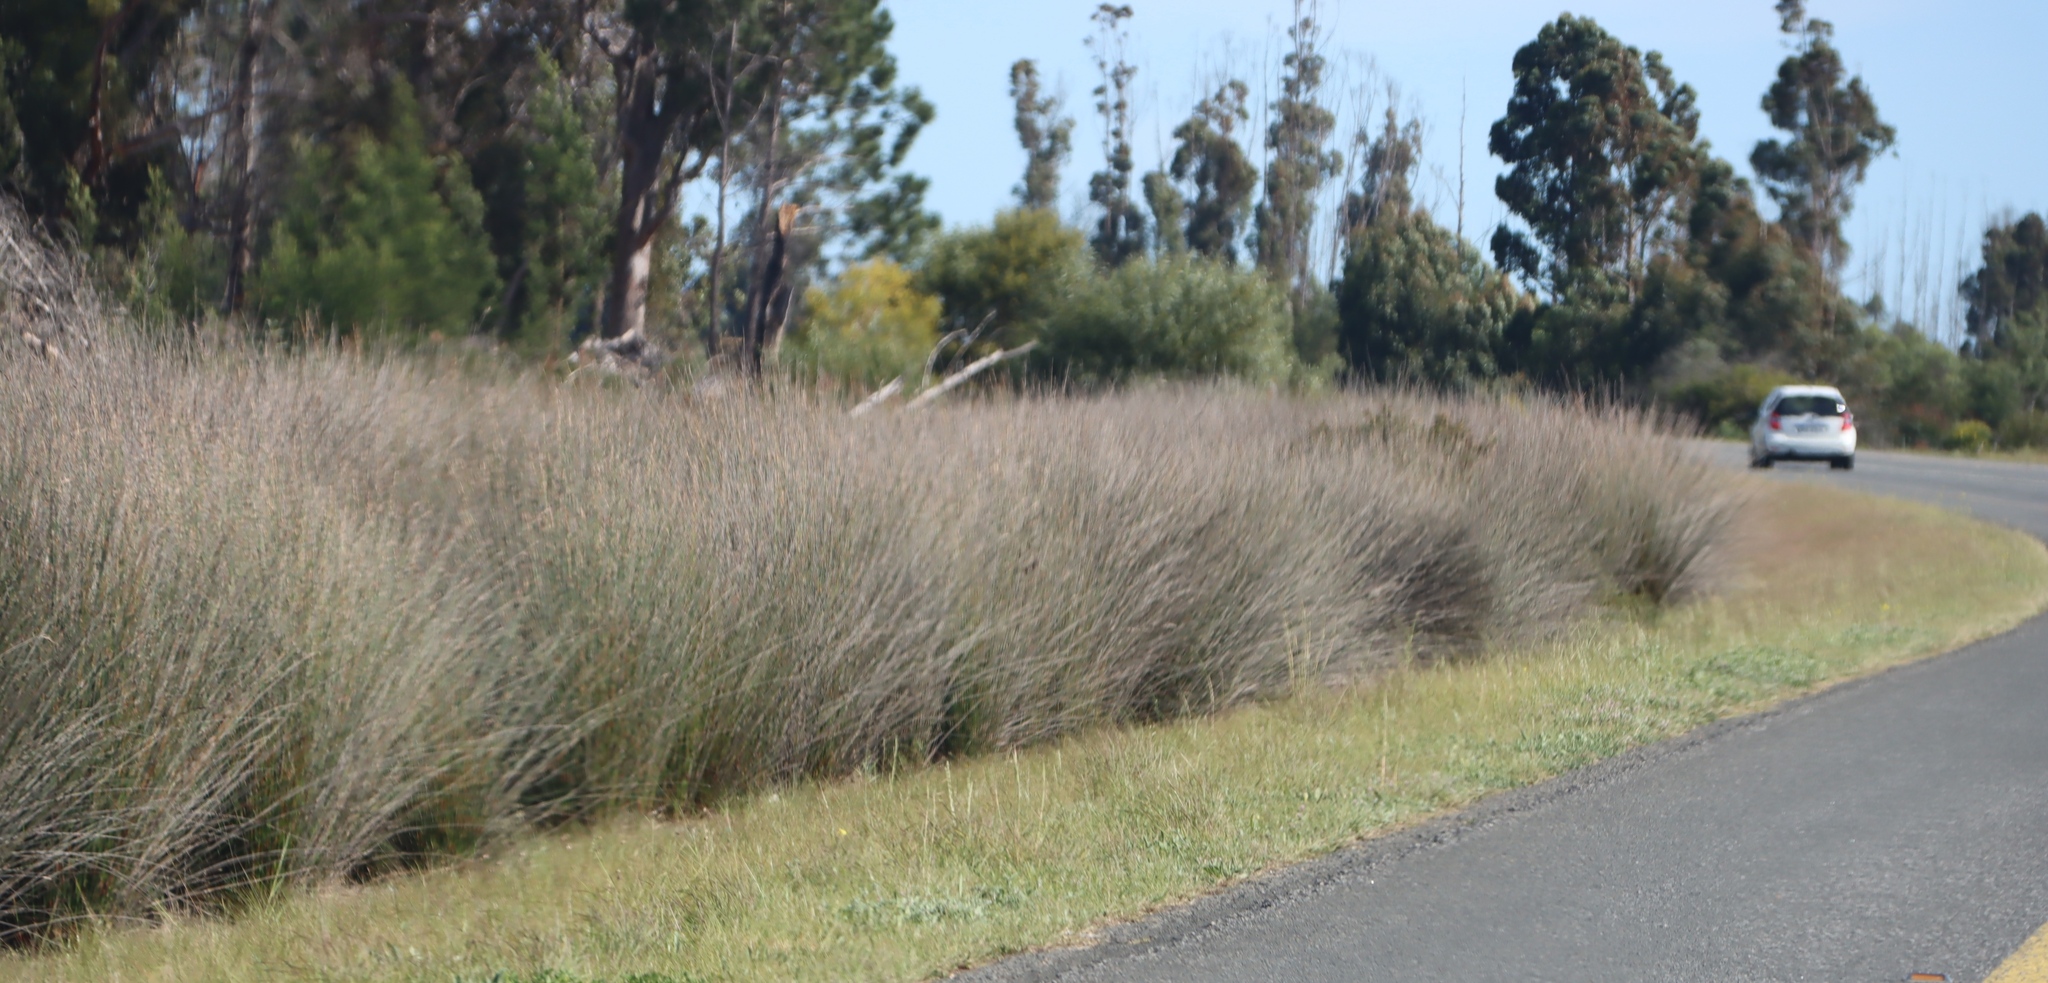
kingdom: Plantae
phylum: Tracheophyta
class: Liliopsida
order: Poales
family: Restionaceae
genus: Thamnochortus
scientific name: Thamnochortus insignis
